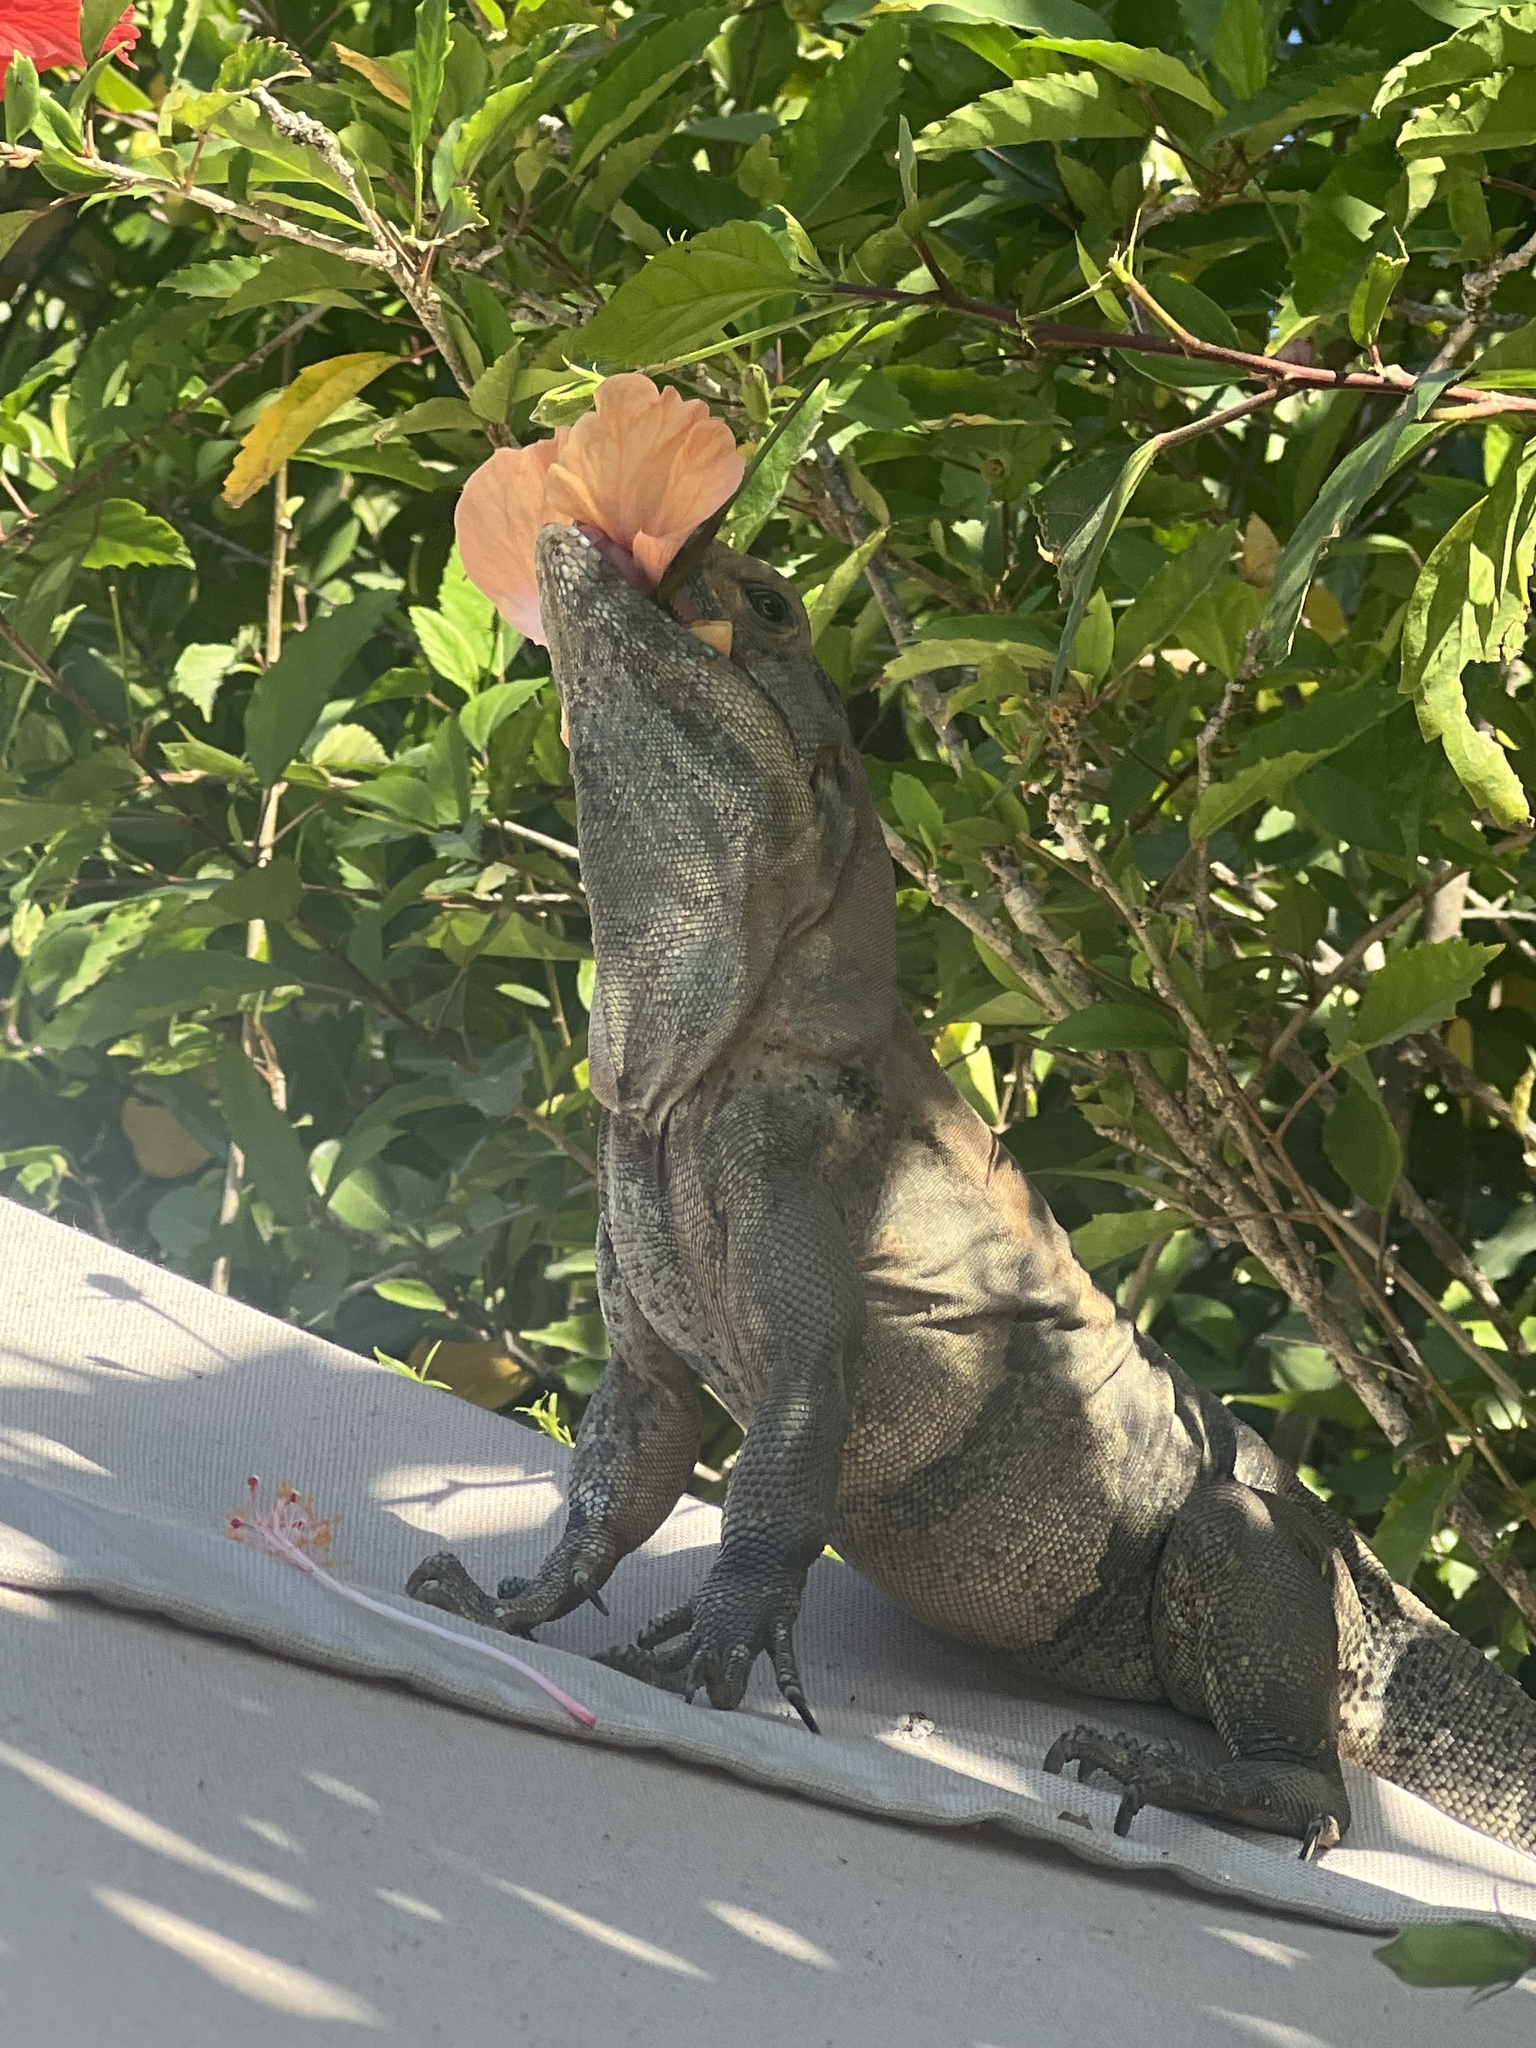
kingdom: Animalia
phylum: Chordata
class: Squamata
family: Iguanidae
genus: Ctenosaura
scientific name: Ctenosaura similis
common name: Black spiny-tailed iguana
